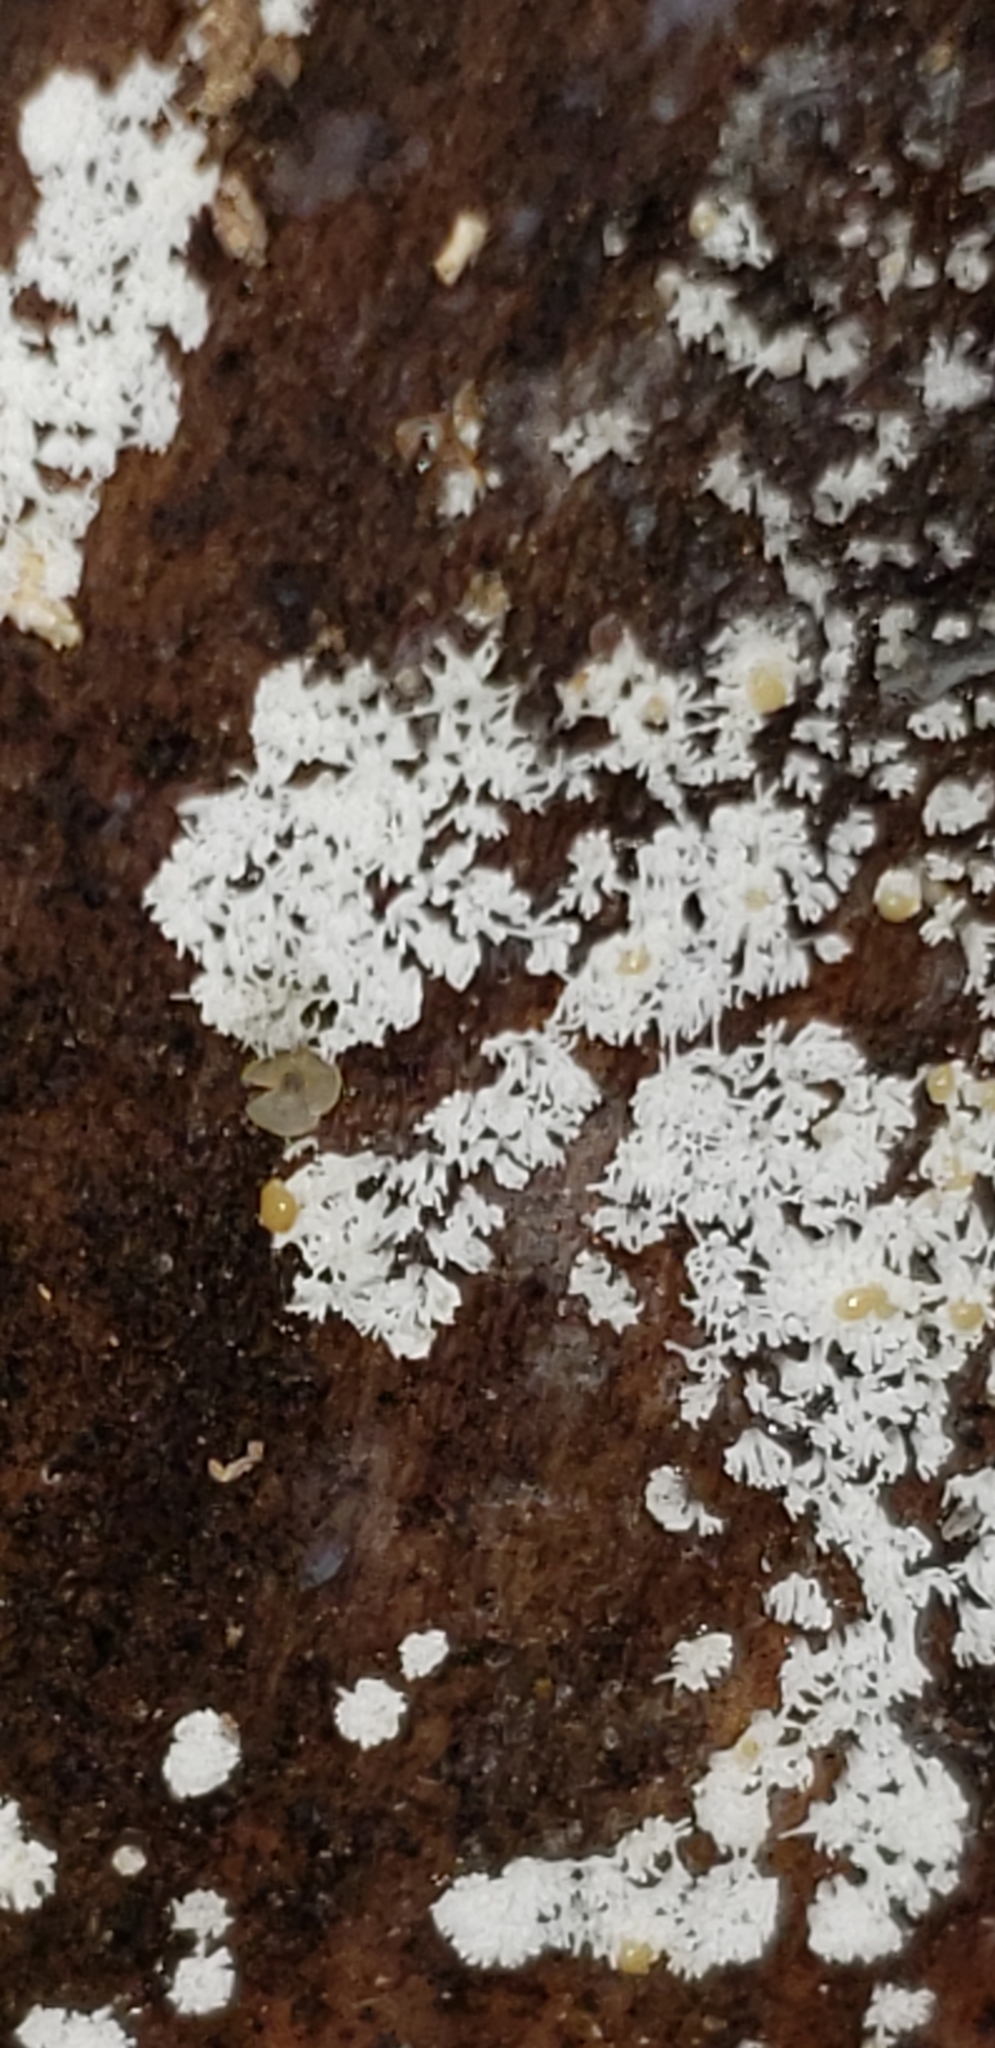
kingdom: Protozoa
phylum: Mycetozoa
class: Protosteliomycetes
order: Ceratiomyxales
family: Ceratiomyxaceae
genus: Ceratiomyxa
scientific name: Ceratiomyxa fruticulosa
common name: Honeycomb coral slime mold
